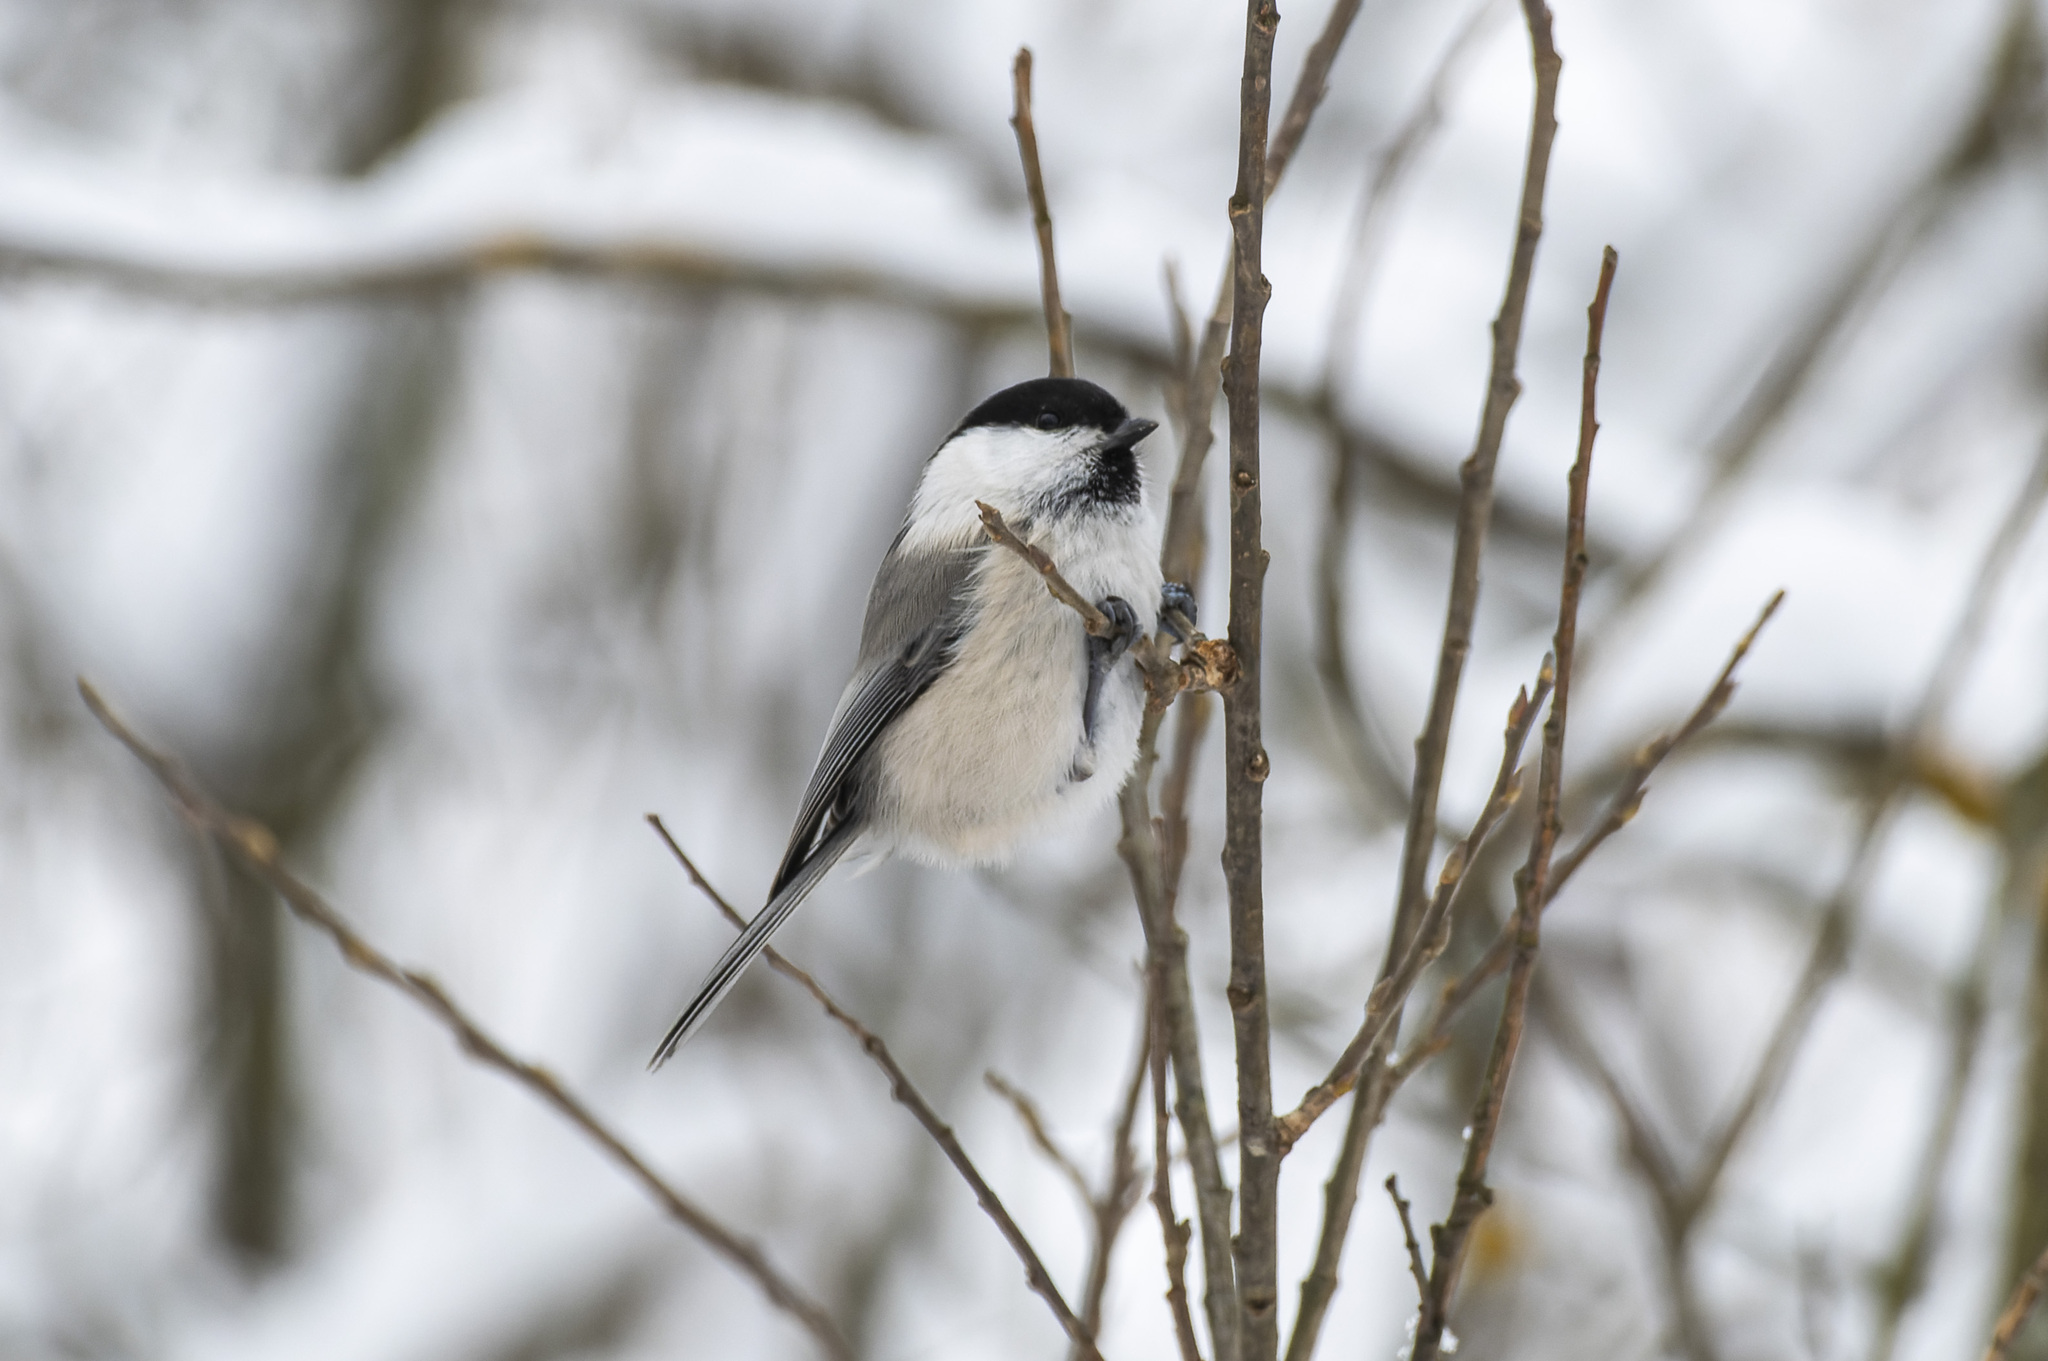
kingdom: Animalia
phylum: Chordata
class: Aves
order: Passeriformes
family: Paridae
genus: Poecile
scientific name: Poecile montanus
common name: Willow tit
